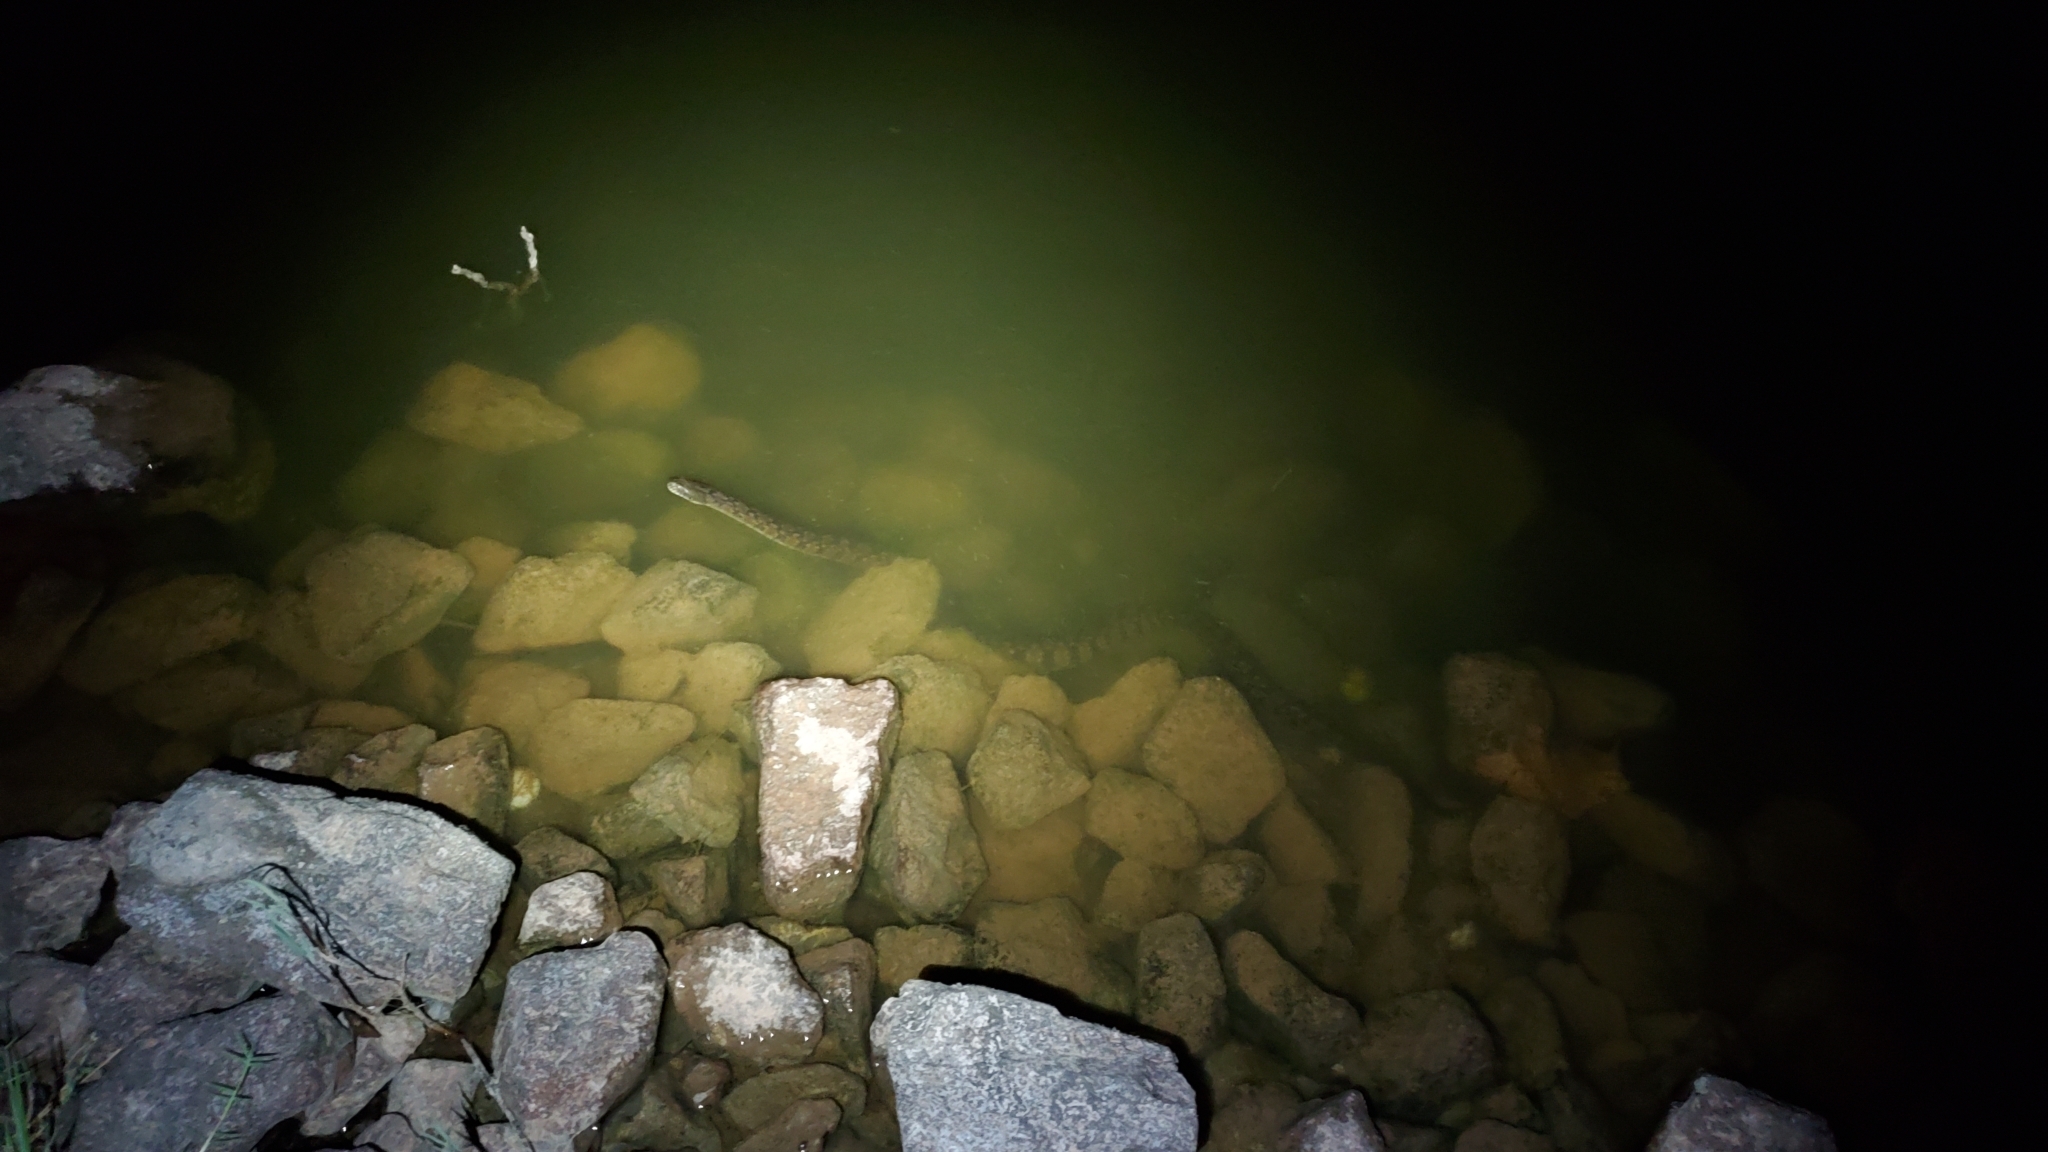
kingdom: Animalia
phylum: Chordata
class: Squamata
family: Colubridae
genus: Nerodia
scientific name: Nerodia rhombifer
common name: Diamondback water snake
